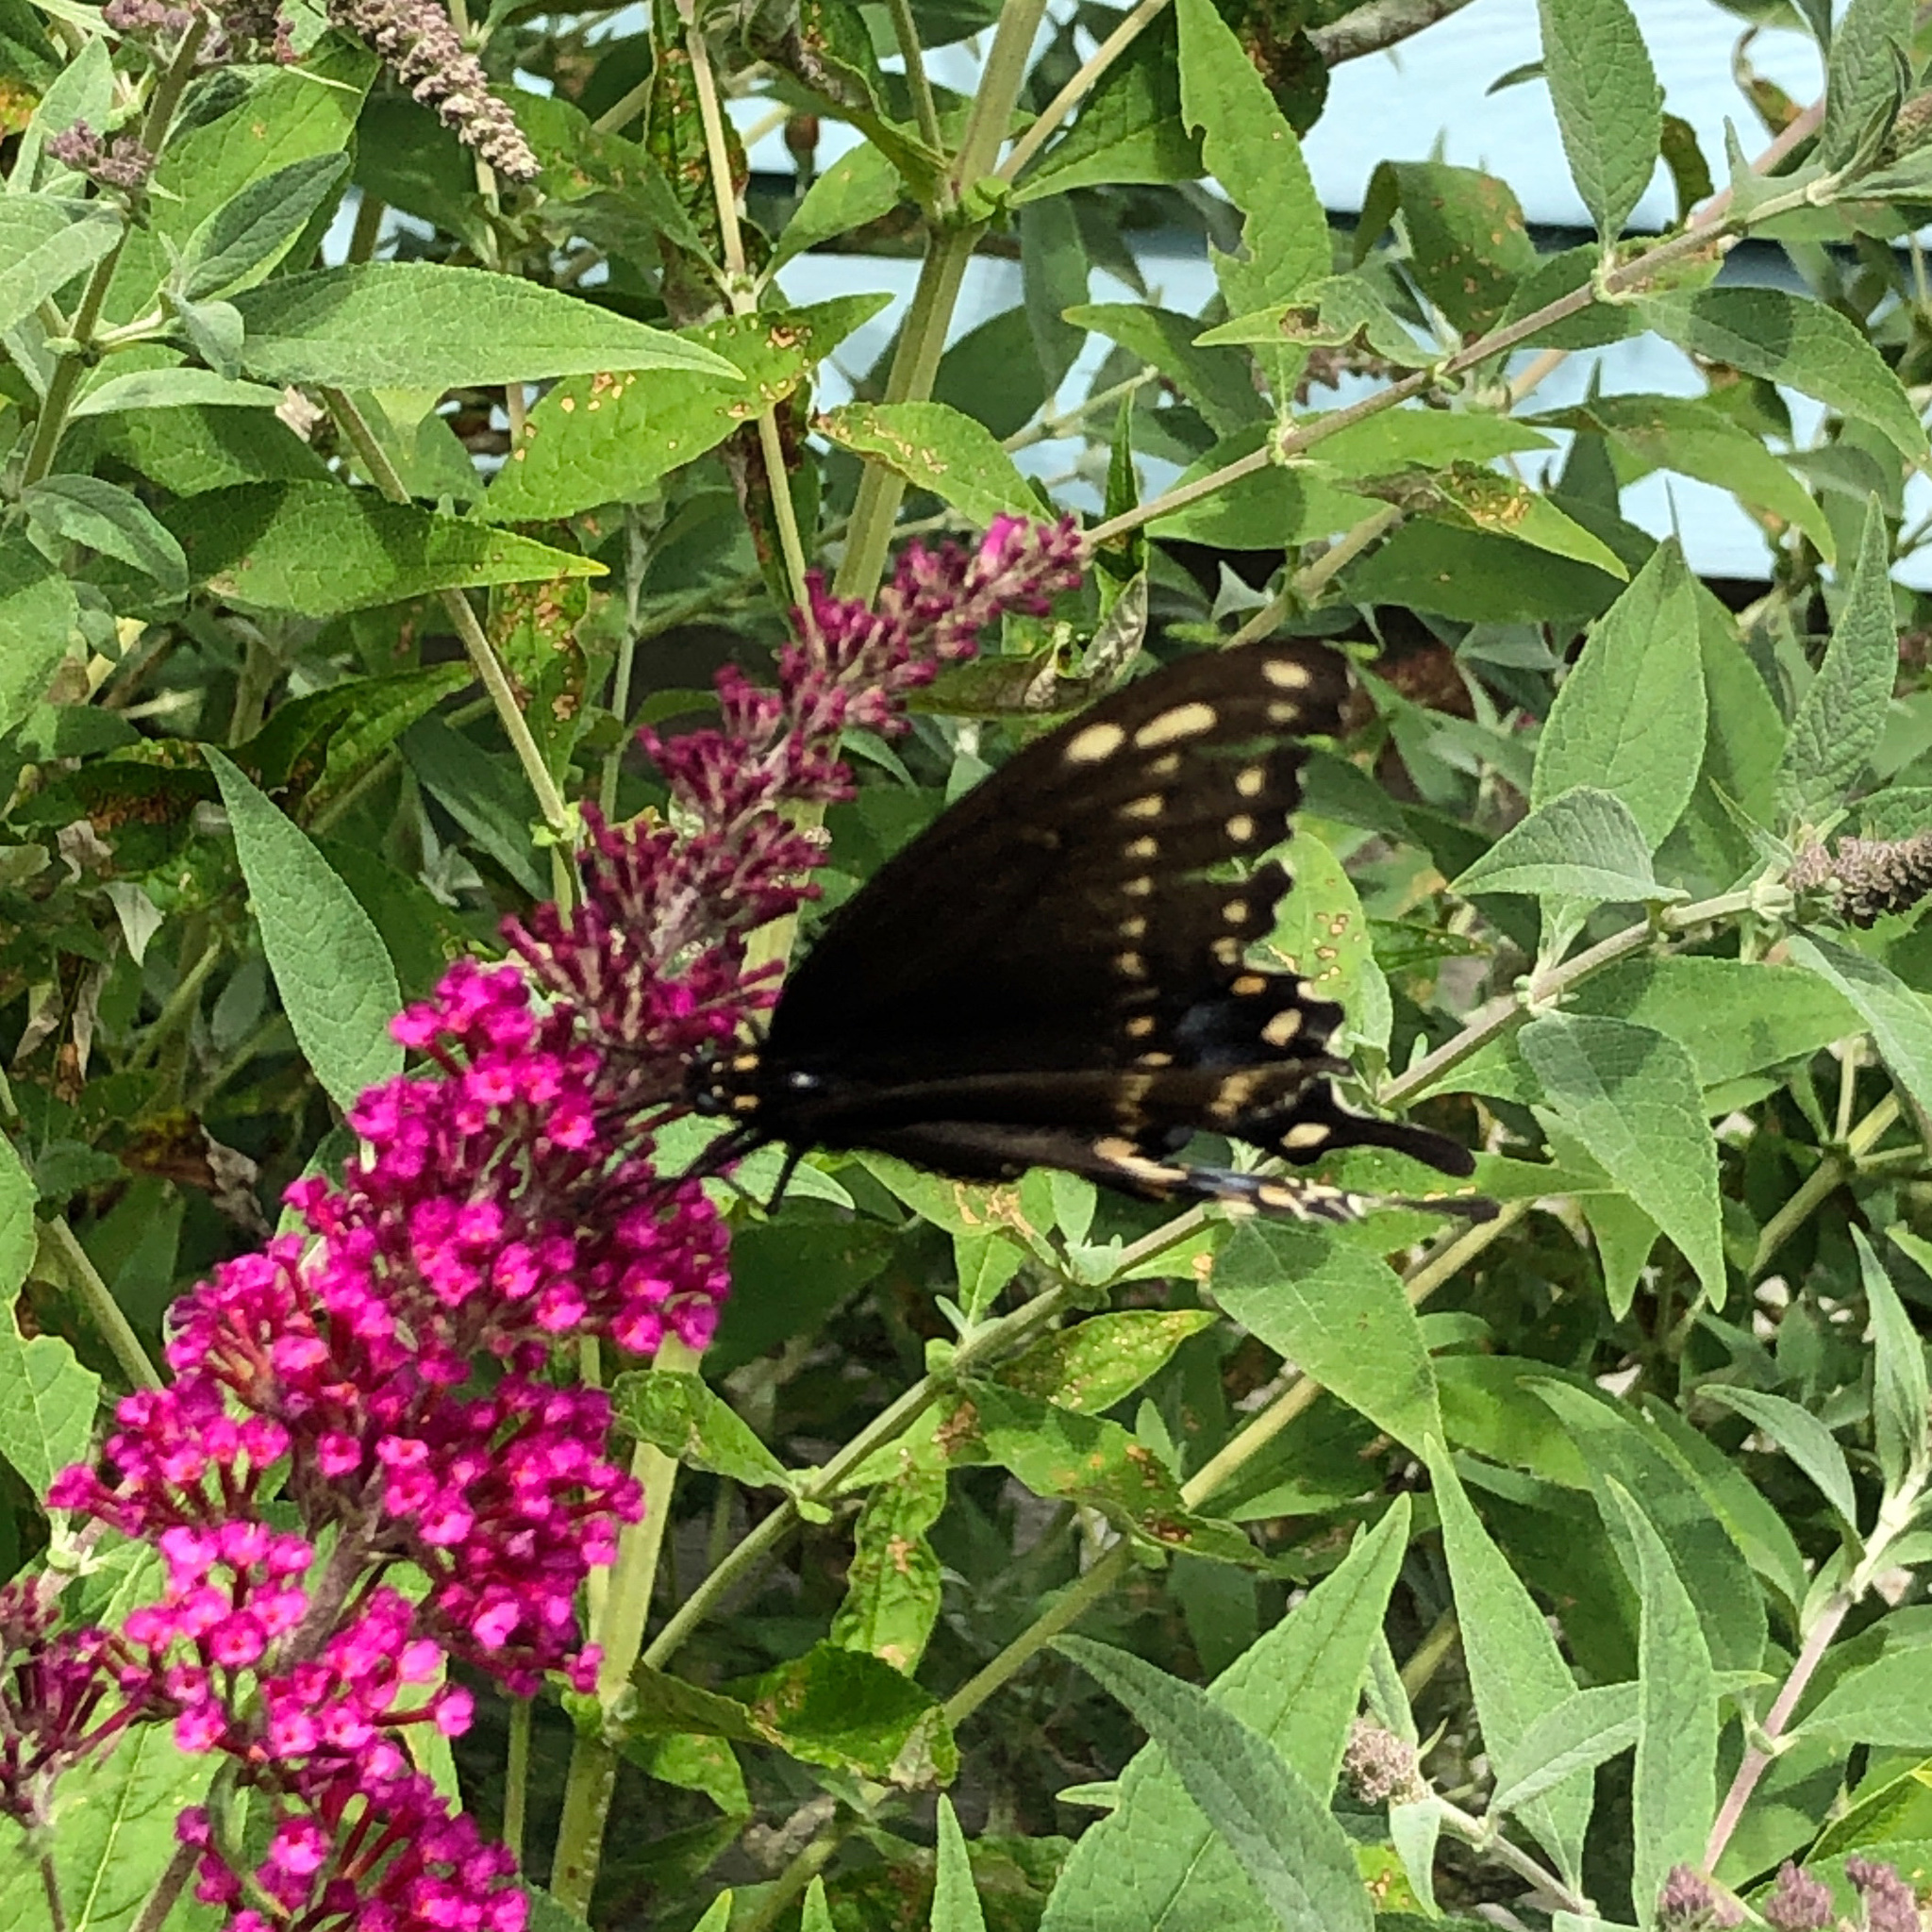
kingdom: Animalia
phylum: Arthropoda
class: Insecta
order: Lepidoptera
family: Papilionidae
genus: Papilio
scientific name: Papilio polyxenes
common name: Black swallowtail
